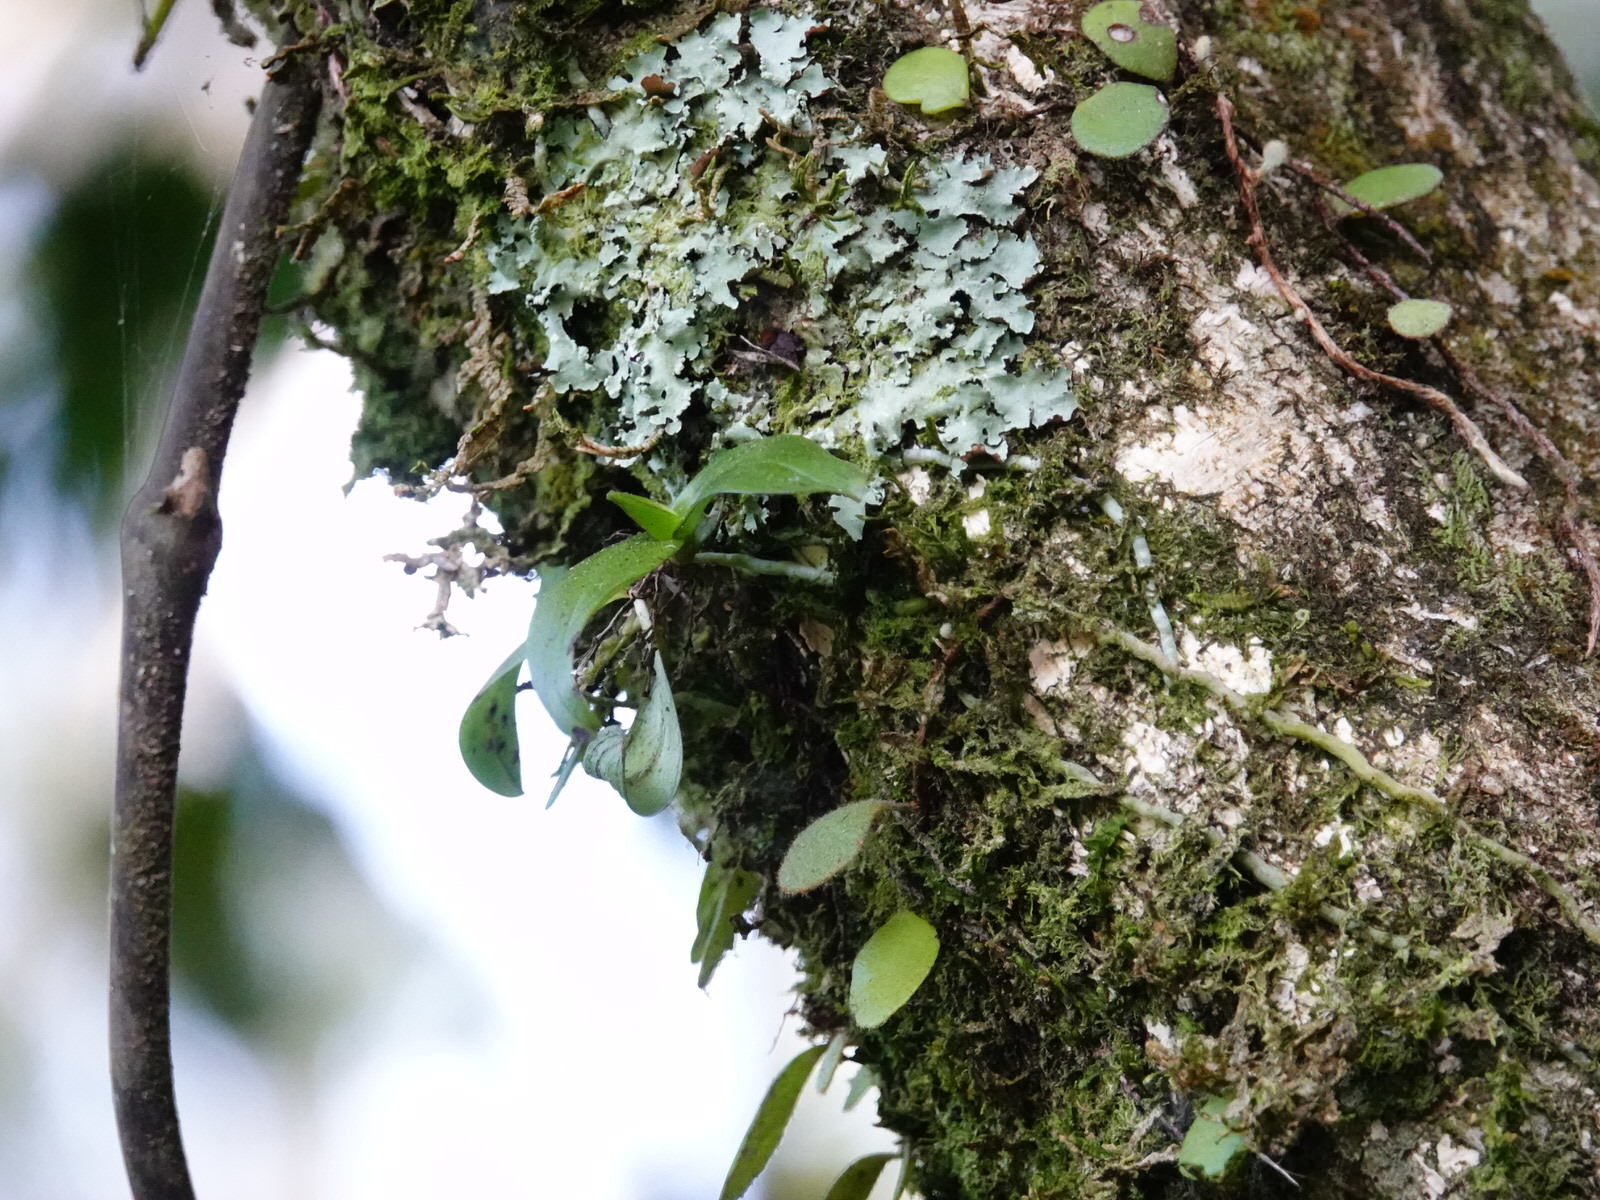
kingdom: Plantae
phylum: Tracheophyta
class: Liliopsida
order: Asparagales
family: Orchidaceae
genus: Drymoanthus
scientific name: Drymoanthus adversus
